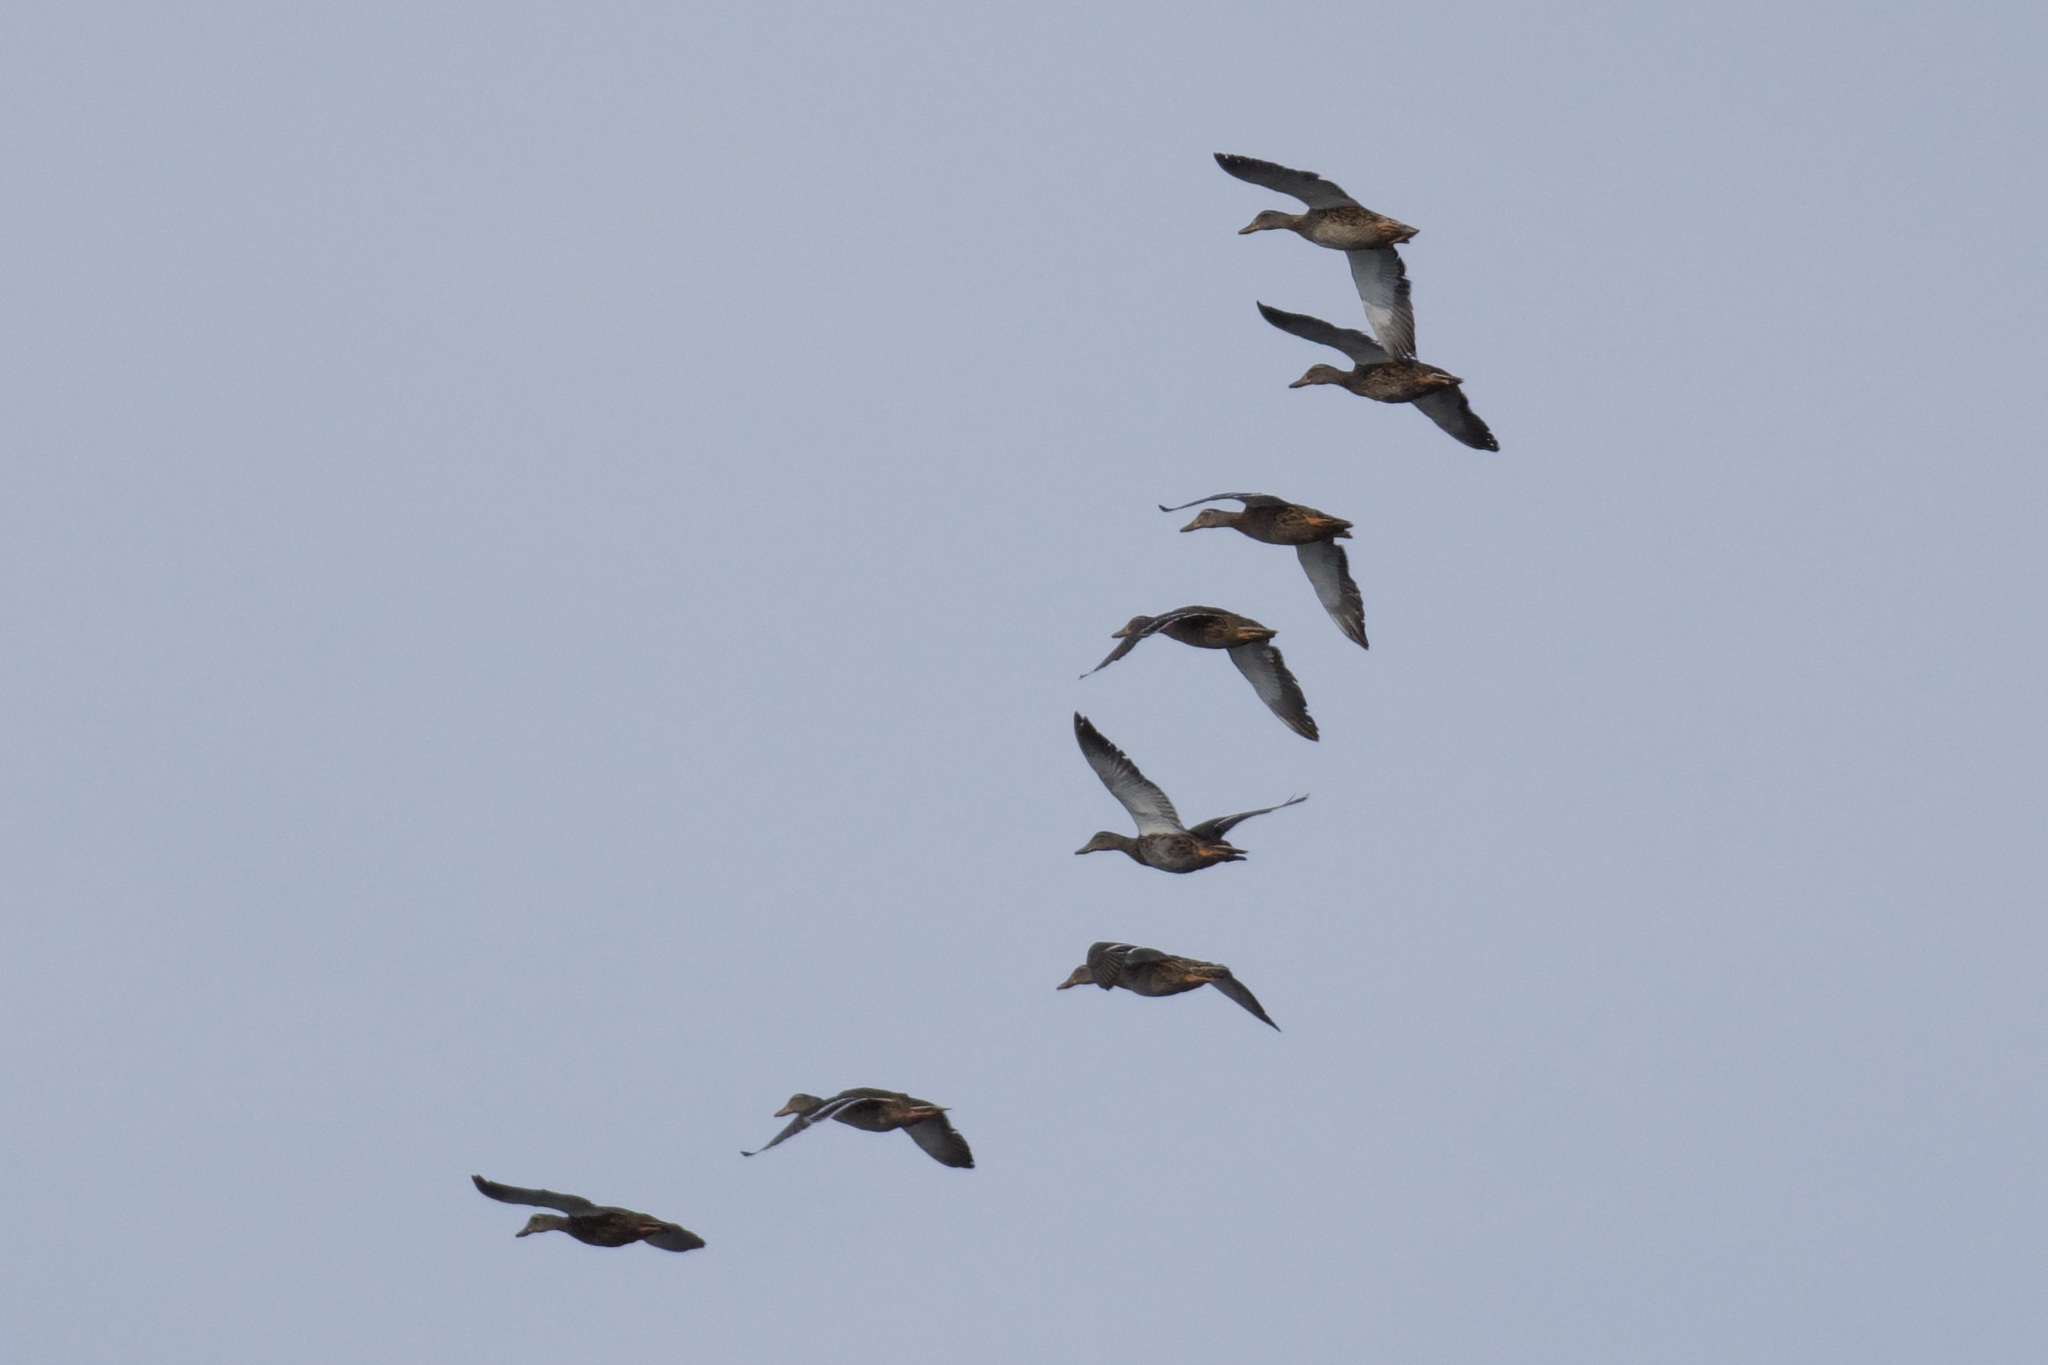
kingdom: Animalia
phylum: Chordata
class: Aves
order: Anseriformes
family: Anatidae
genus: Anas
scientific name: Anas platyrhynchos
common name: Mallard
